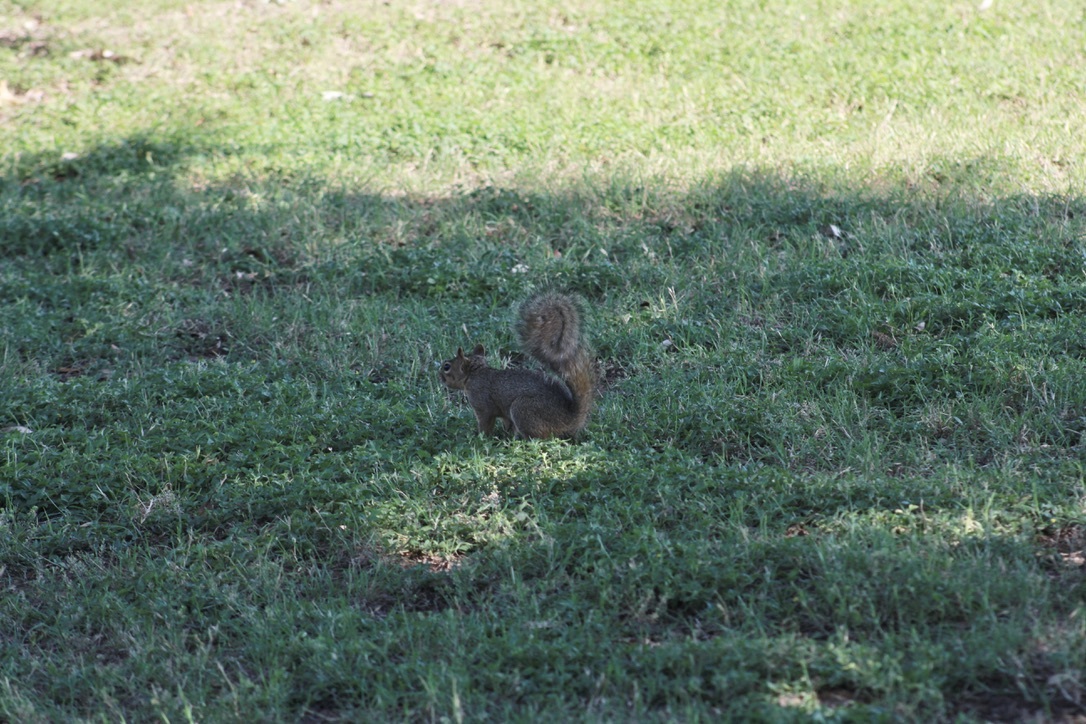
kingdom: Animalia
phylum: Chordata
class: Mammalia
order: Rodentia
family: Sciuridae
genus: Sciurus
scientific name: Sciurus niger
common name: Fox squirrel
